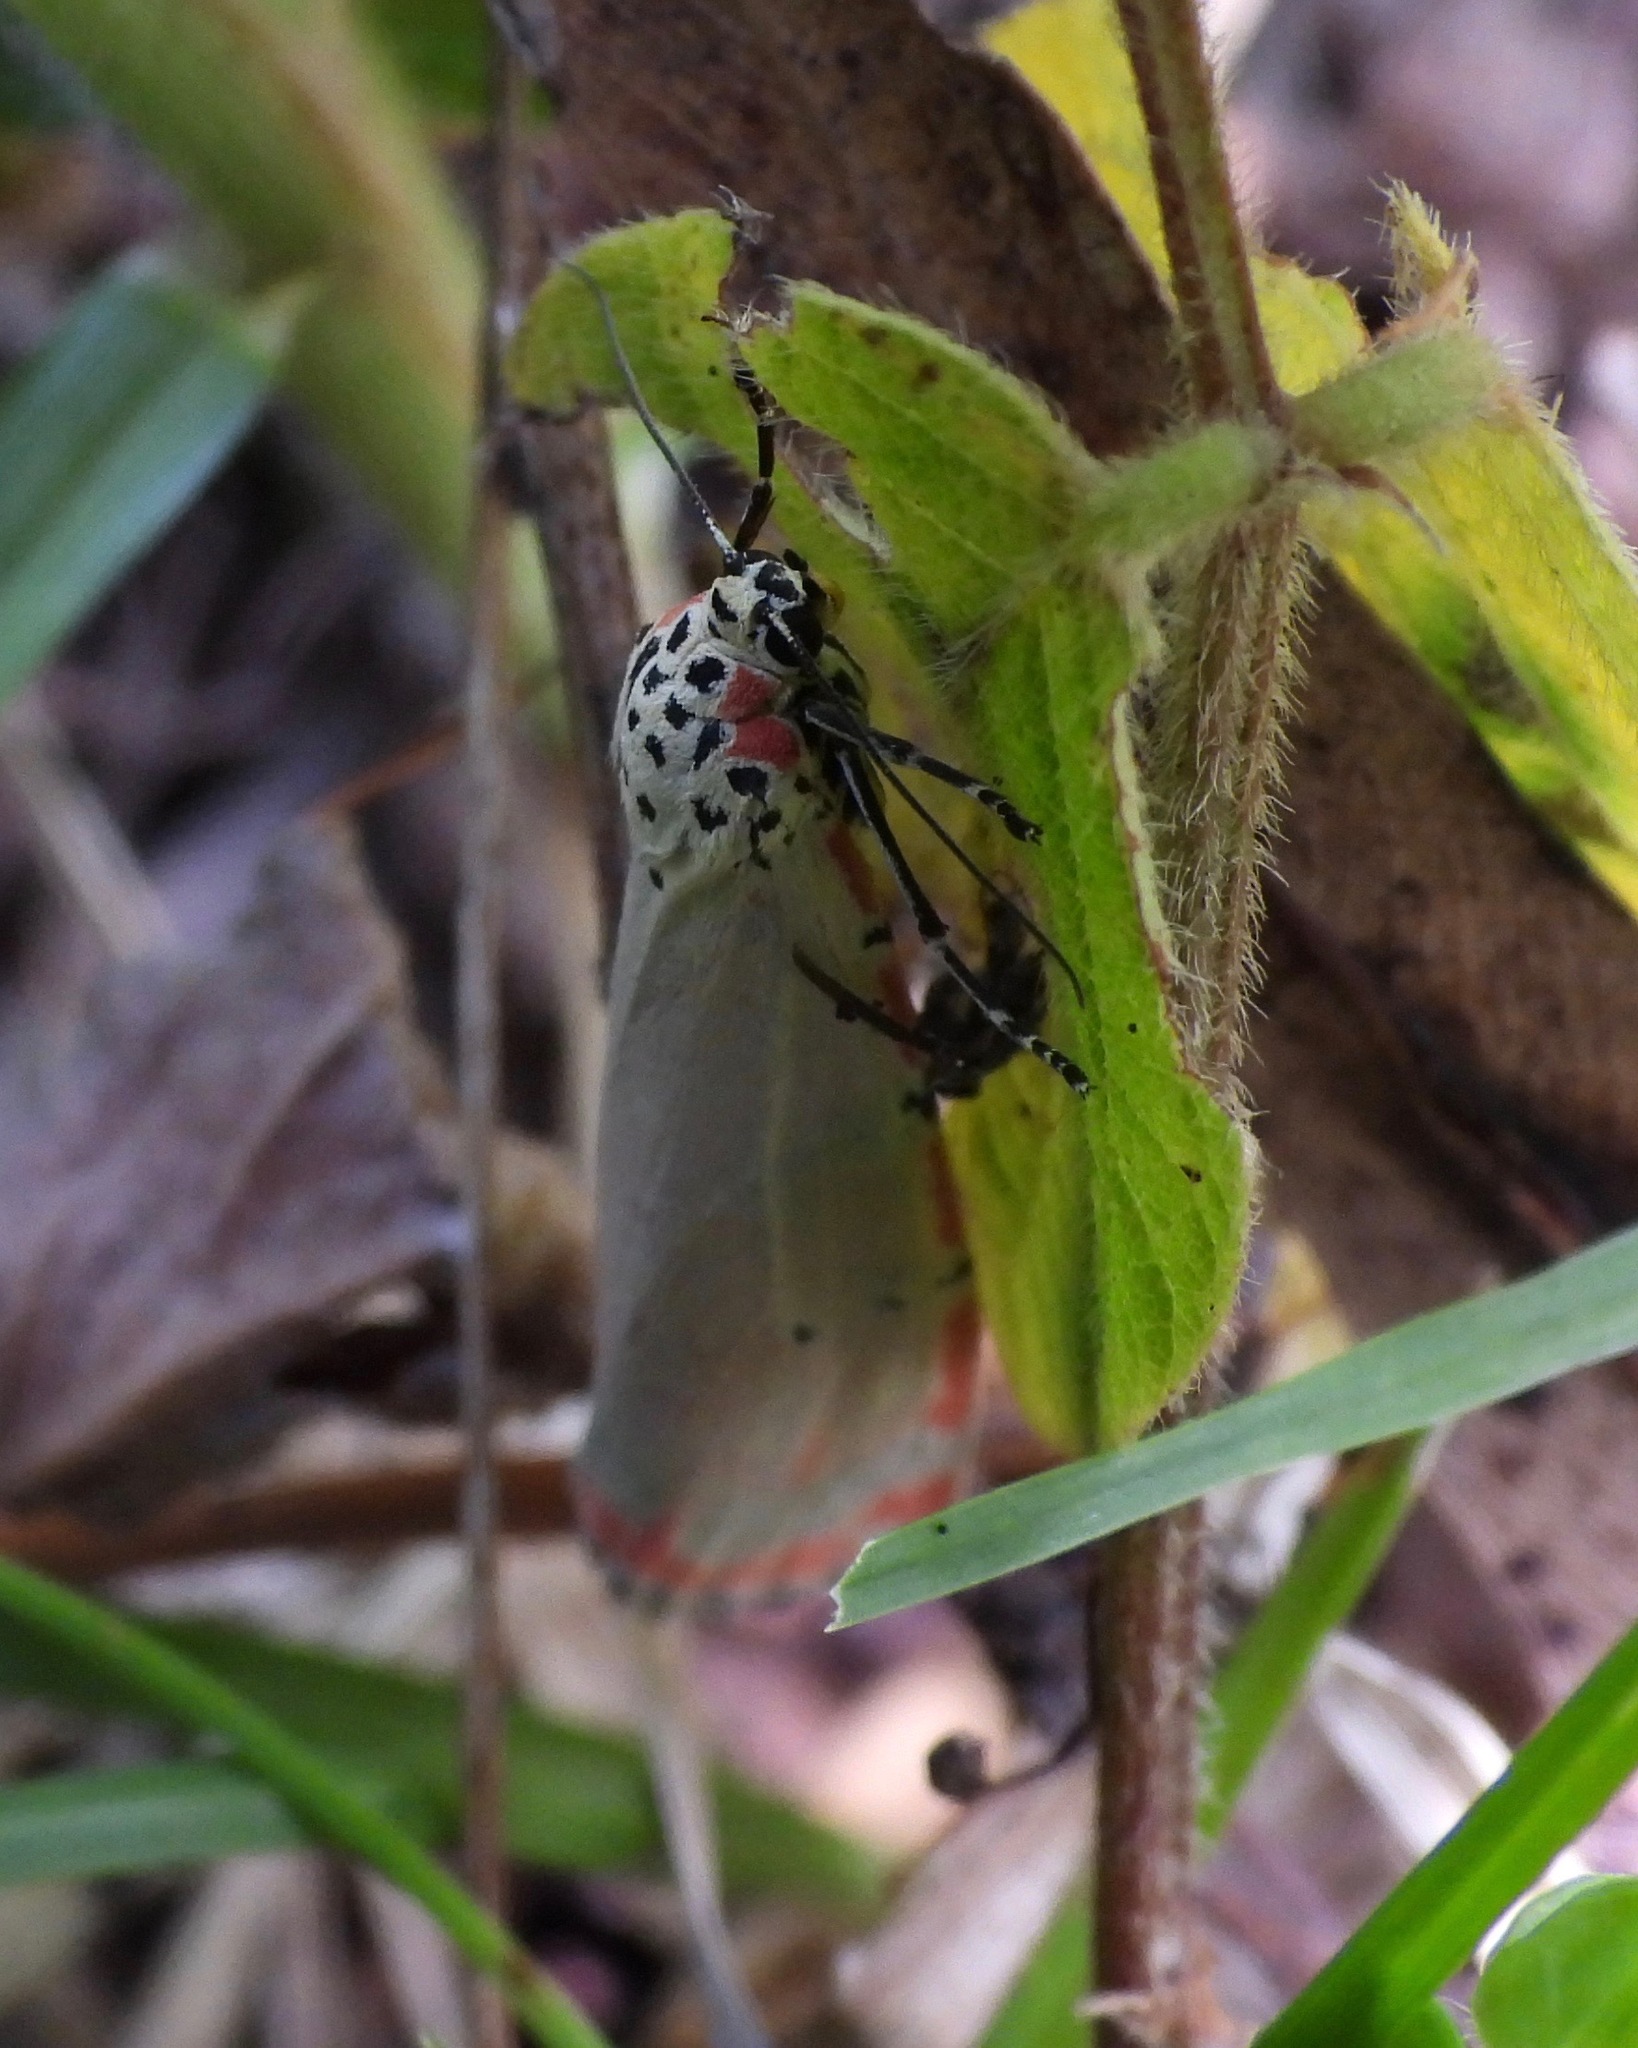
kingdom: Animalia
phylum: Arthropoda
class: Insecta
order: Lepidoptera
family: Erebidae
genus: Utetheisa
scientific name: Utetheisa ornatrix
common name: Beautiful utetheisa
